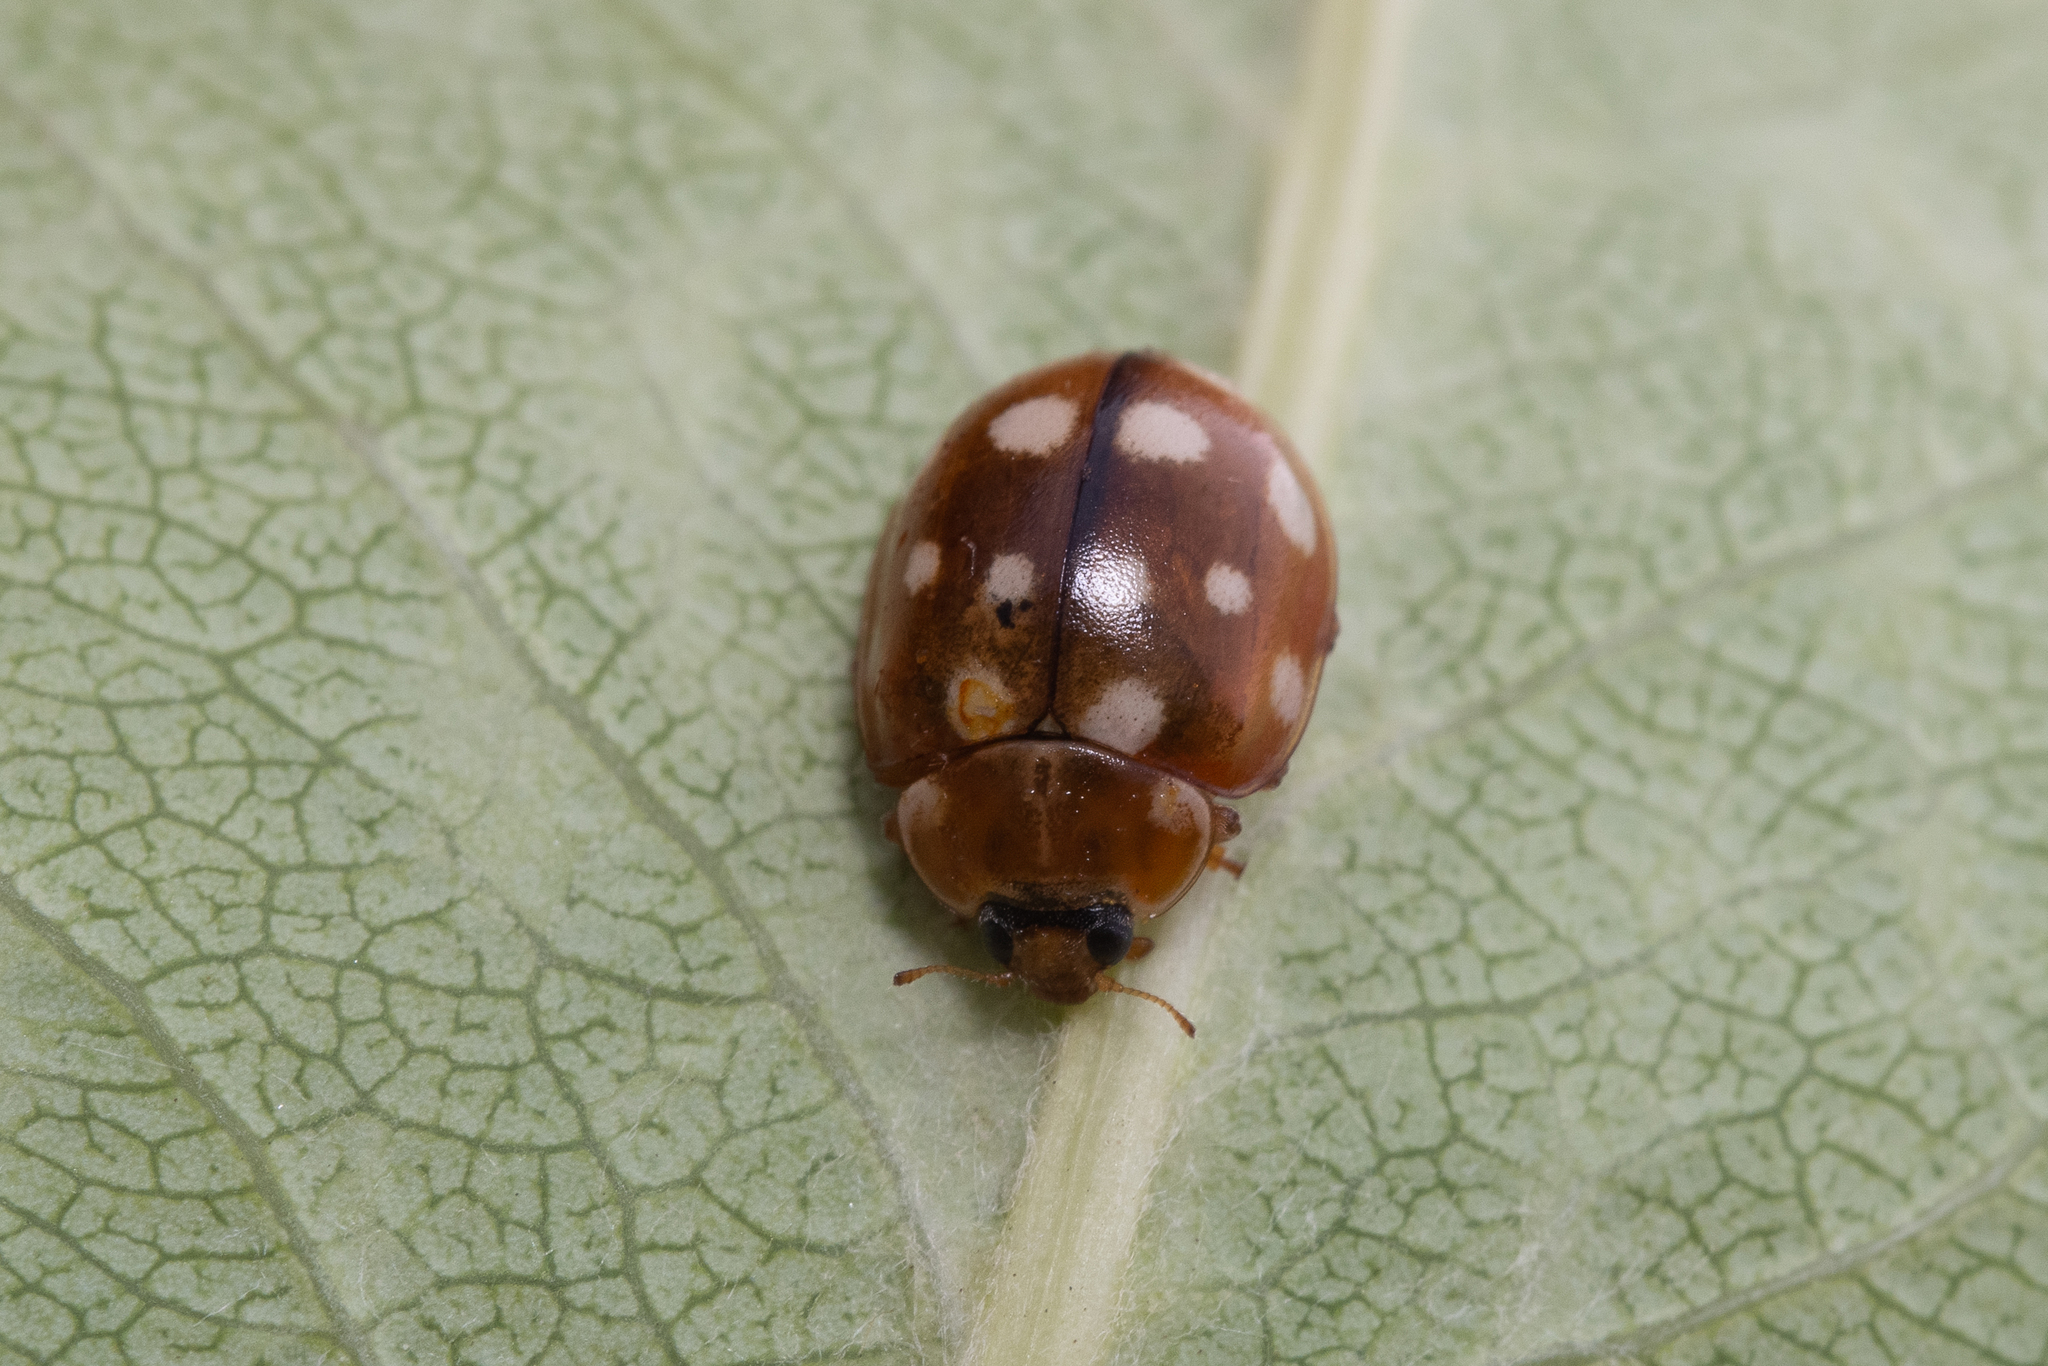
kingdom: Animalia
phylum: Arthropoda
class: Insecta
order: Coleoptera
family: Coccinellidae
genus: Calvia
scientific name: Calvia quatuordecimguttata
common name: Cream-spot ladybird
